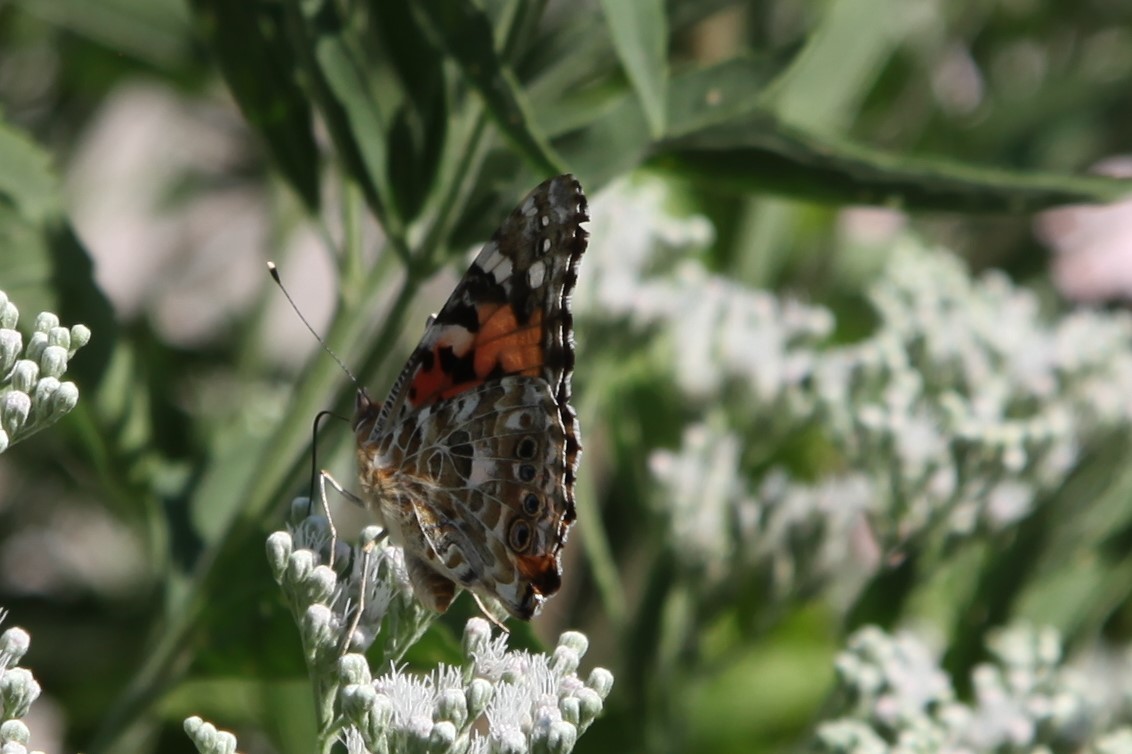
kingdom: Animalia
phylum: Arthropoda
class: Insecta
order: Lepidoptera
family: Nymphalidae
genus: Vanessa
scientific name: Vanessa cardui
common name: Painted lady
